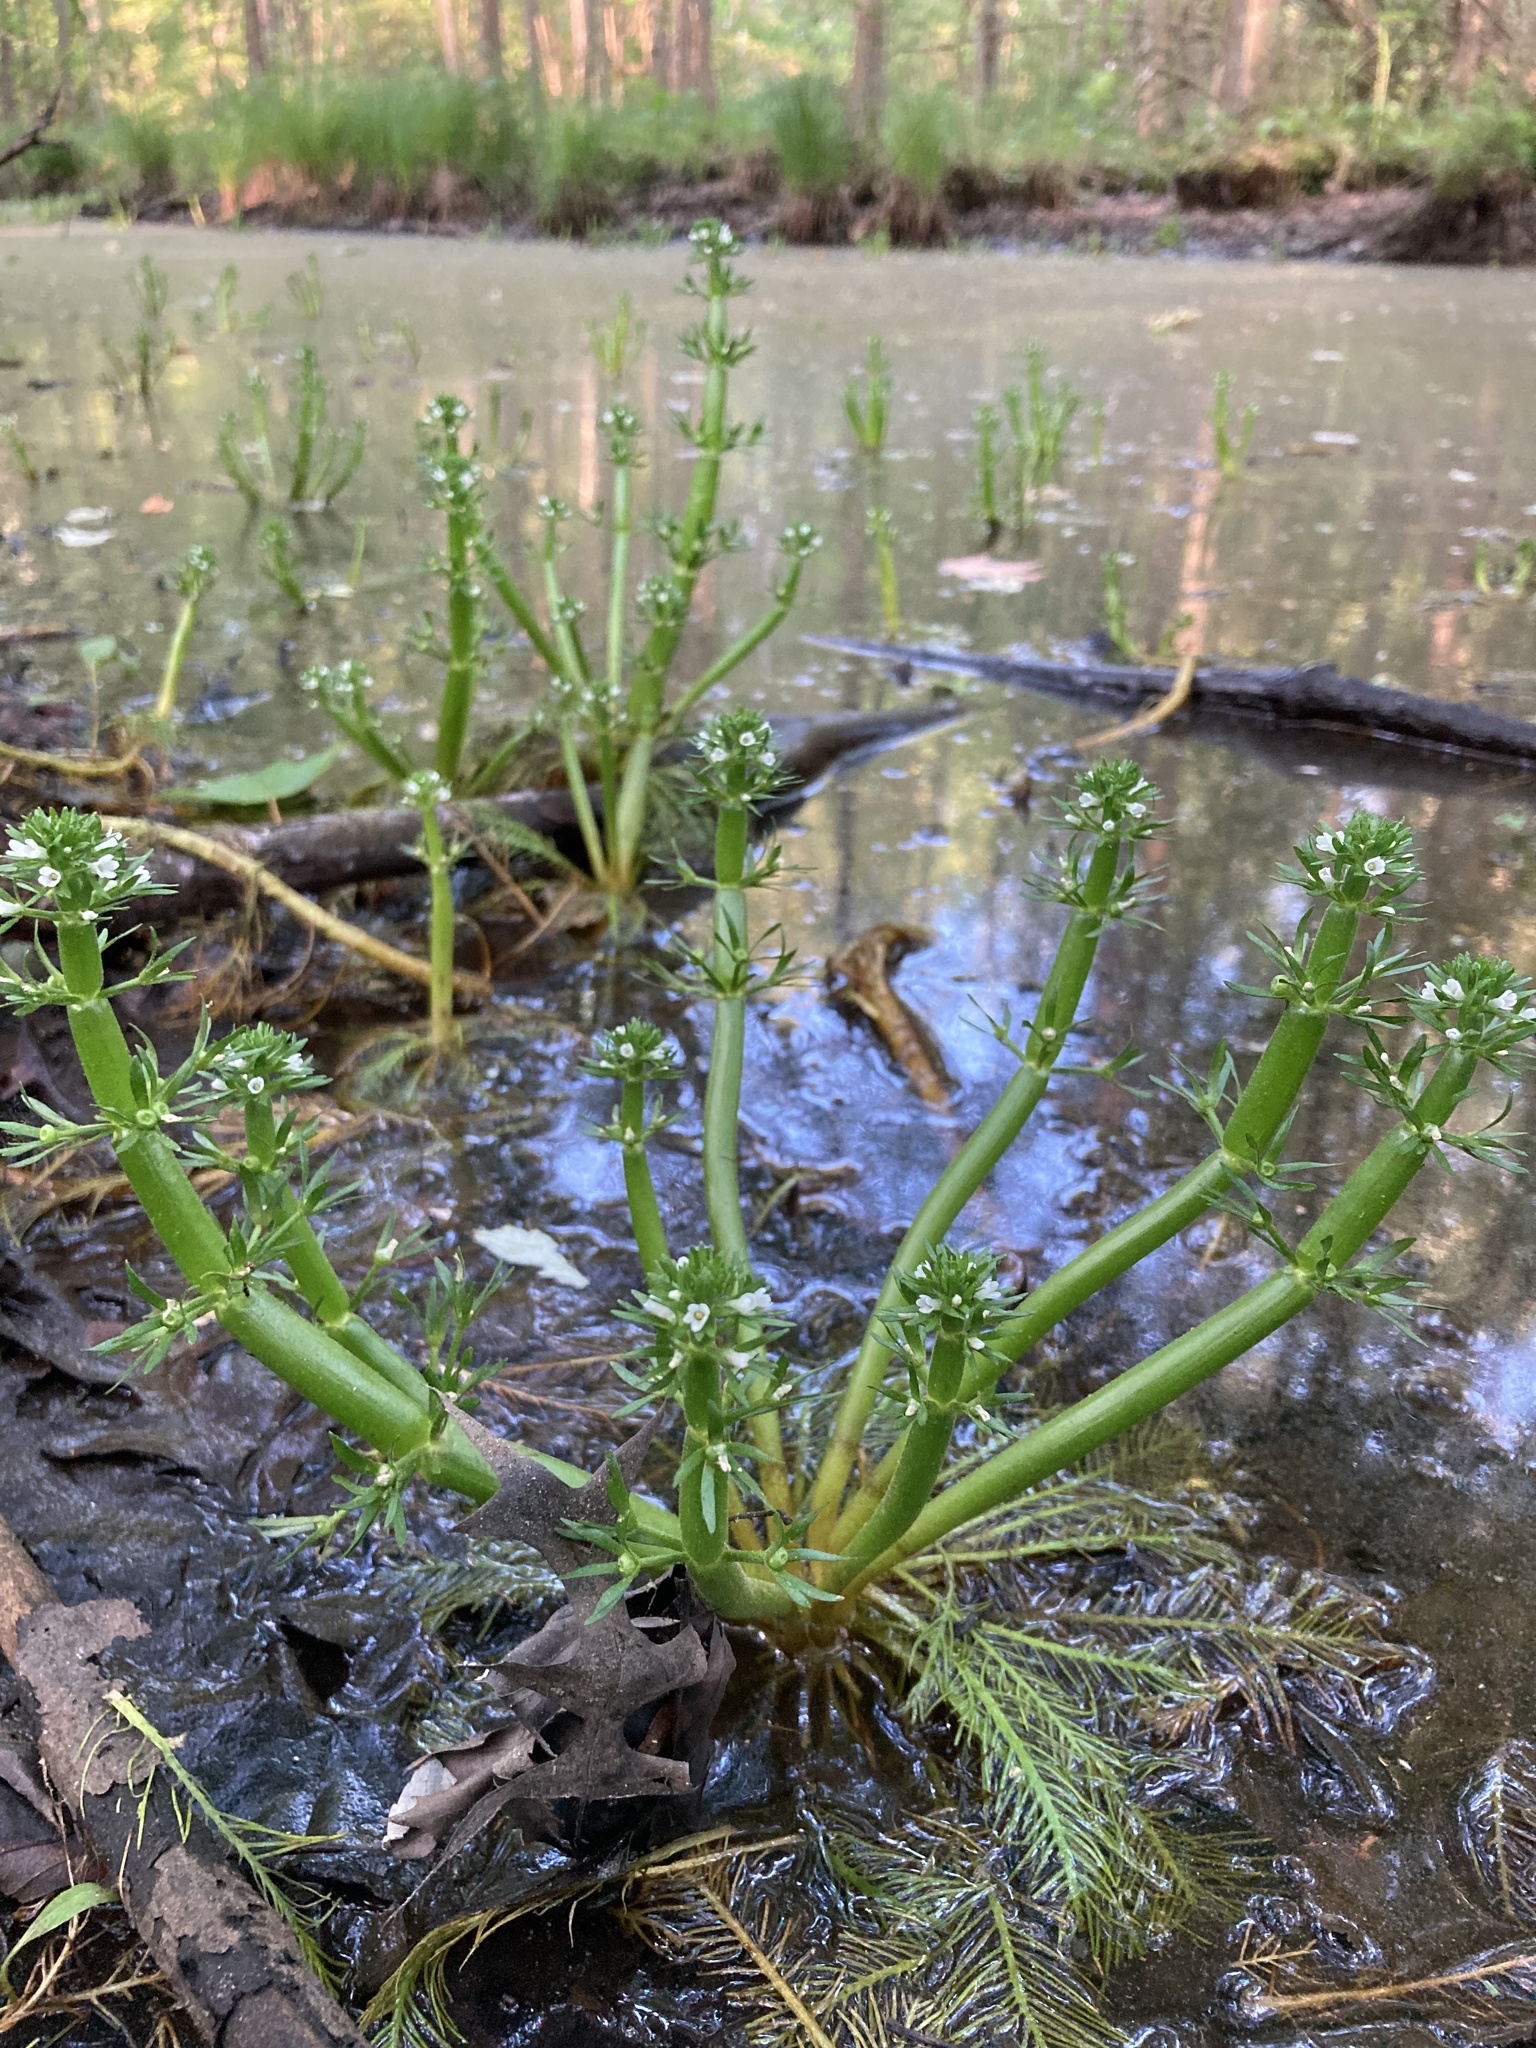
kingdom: Plantae
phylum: Tracheophyta
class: Magnoliopsida
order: Ericales
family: Primulaceae
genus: Hottonia
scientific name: Hottonia inflata
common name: American featherfoil
